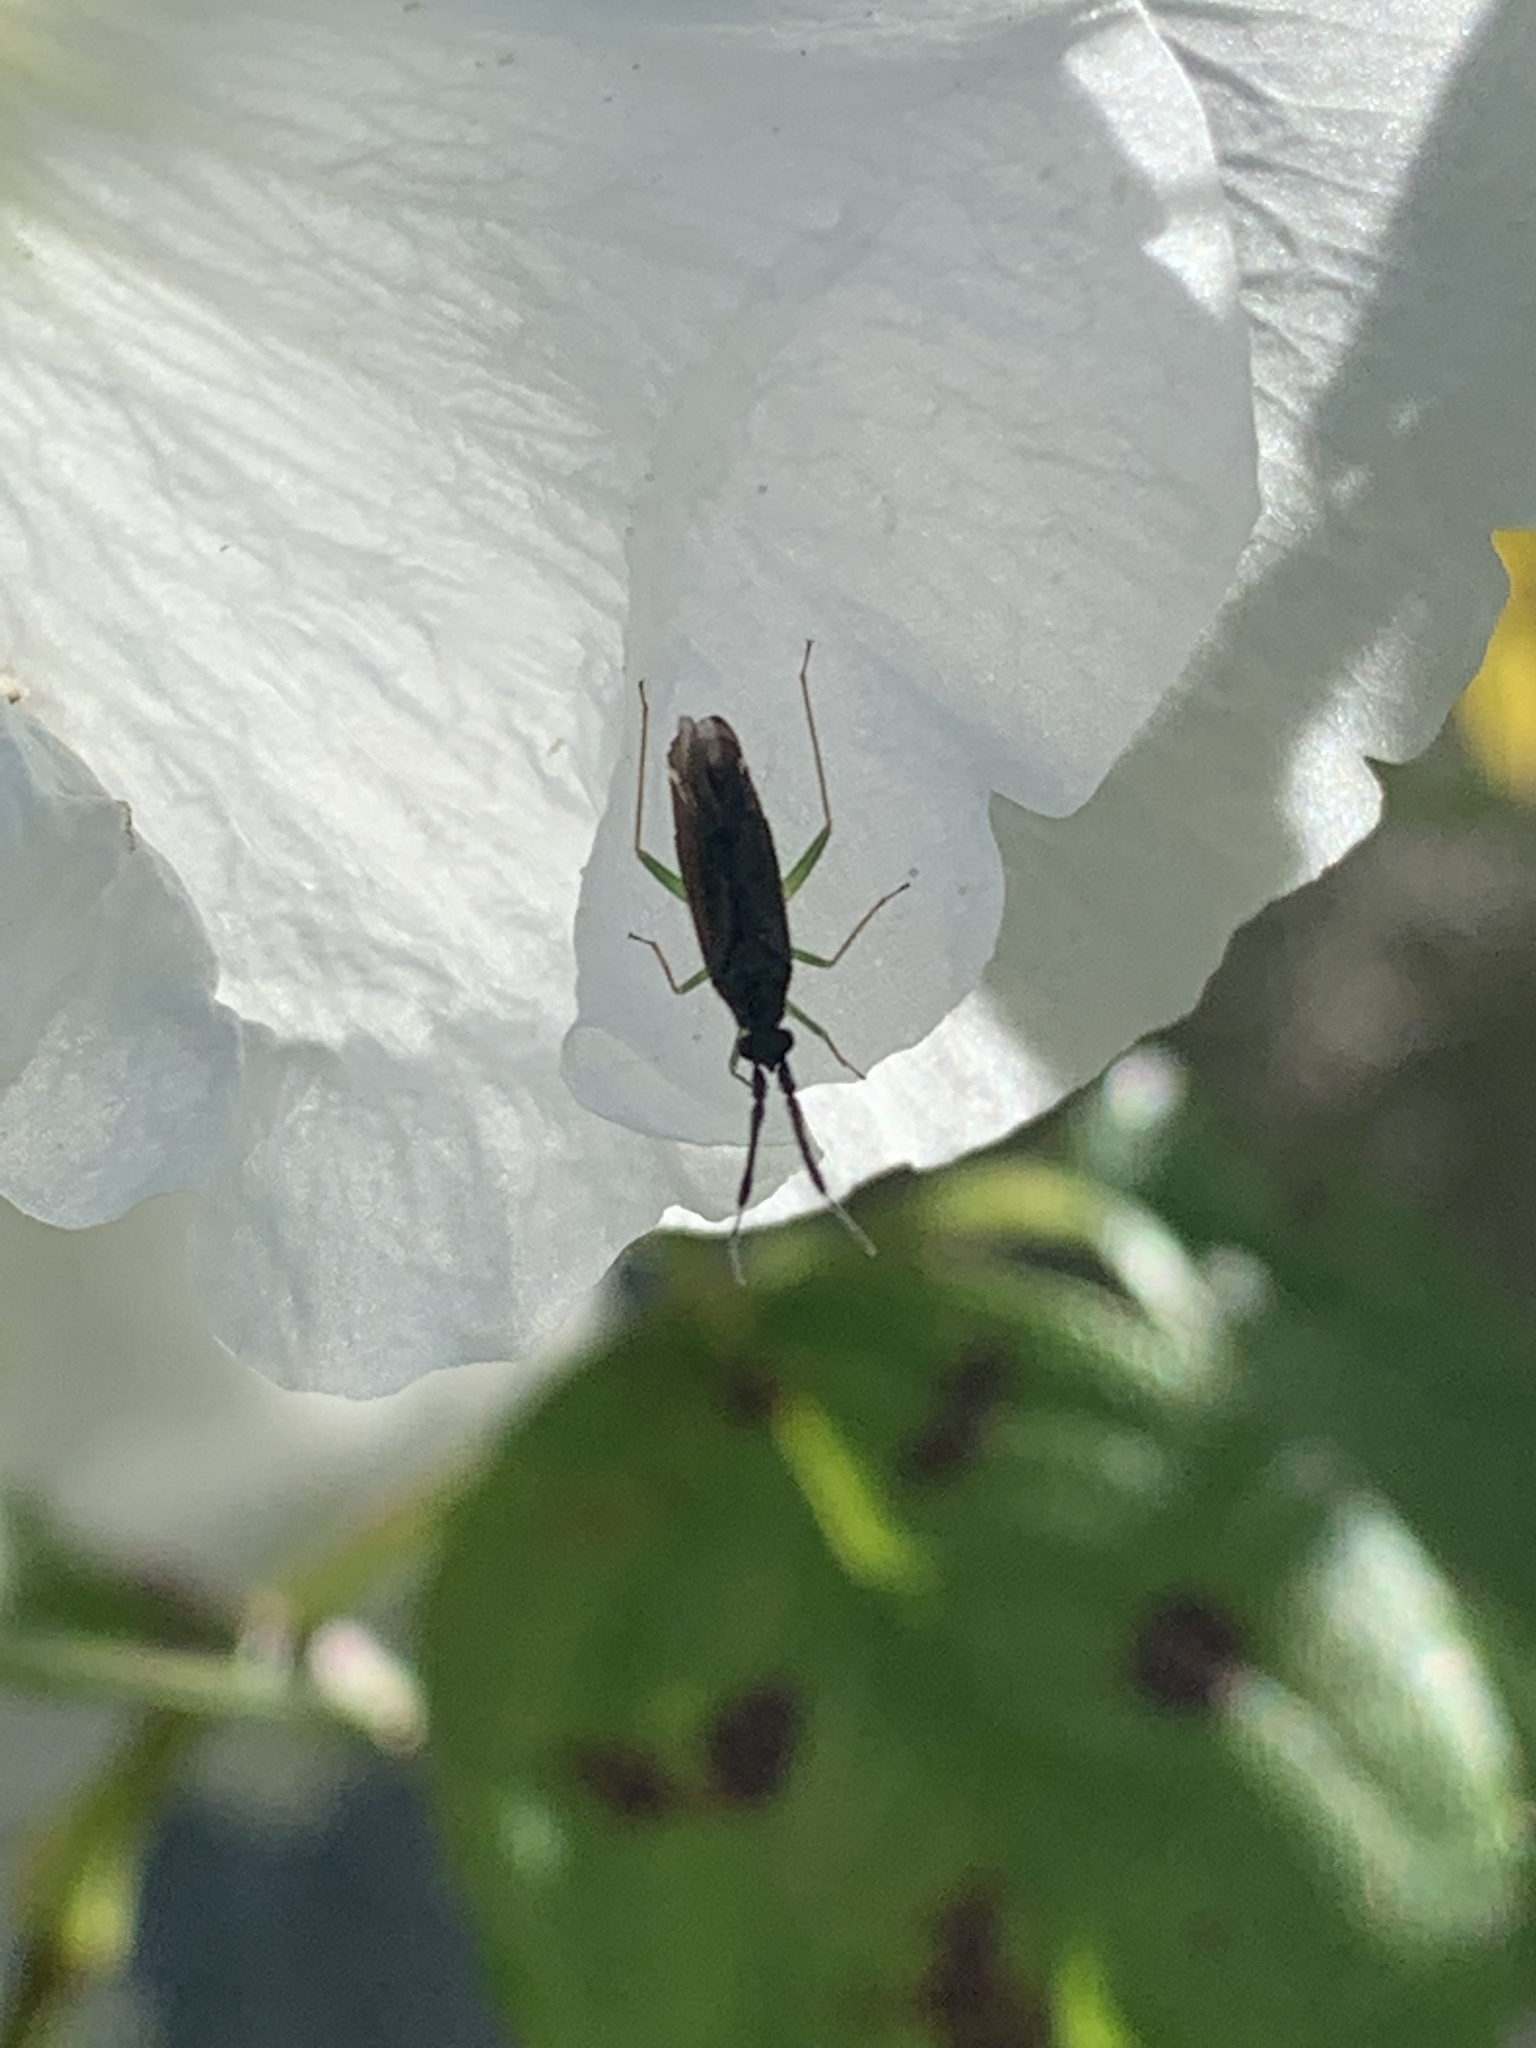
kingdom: Animalia
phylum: Arthropoda
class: Insecta
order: Hemiptera
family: Miridae
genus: Heterotoma
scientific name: Heterotoma planicornis
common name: Plant bug
